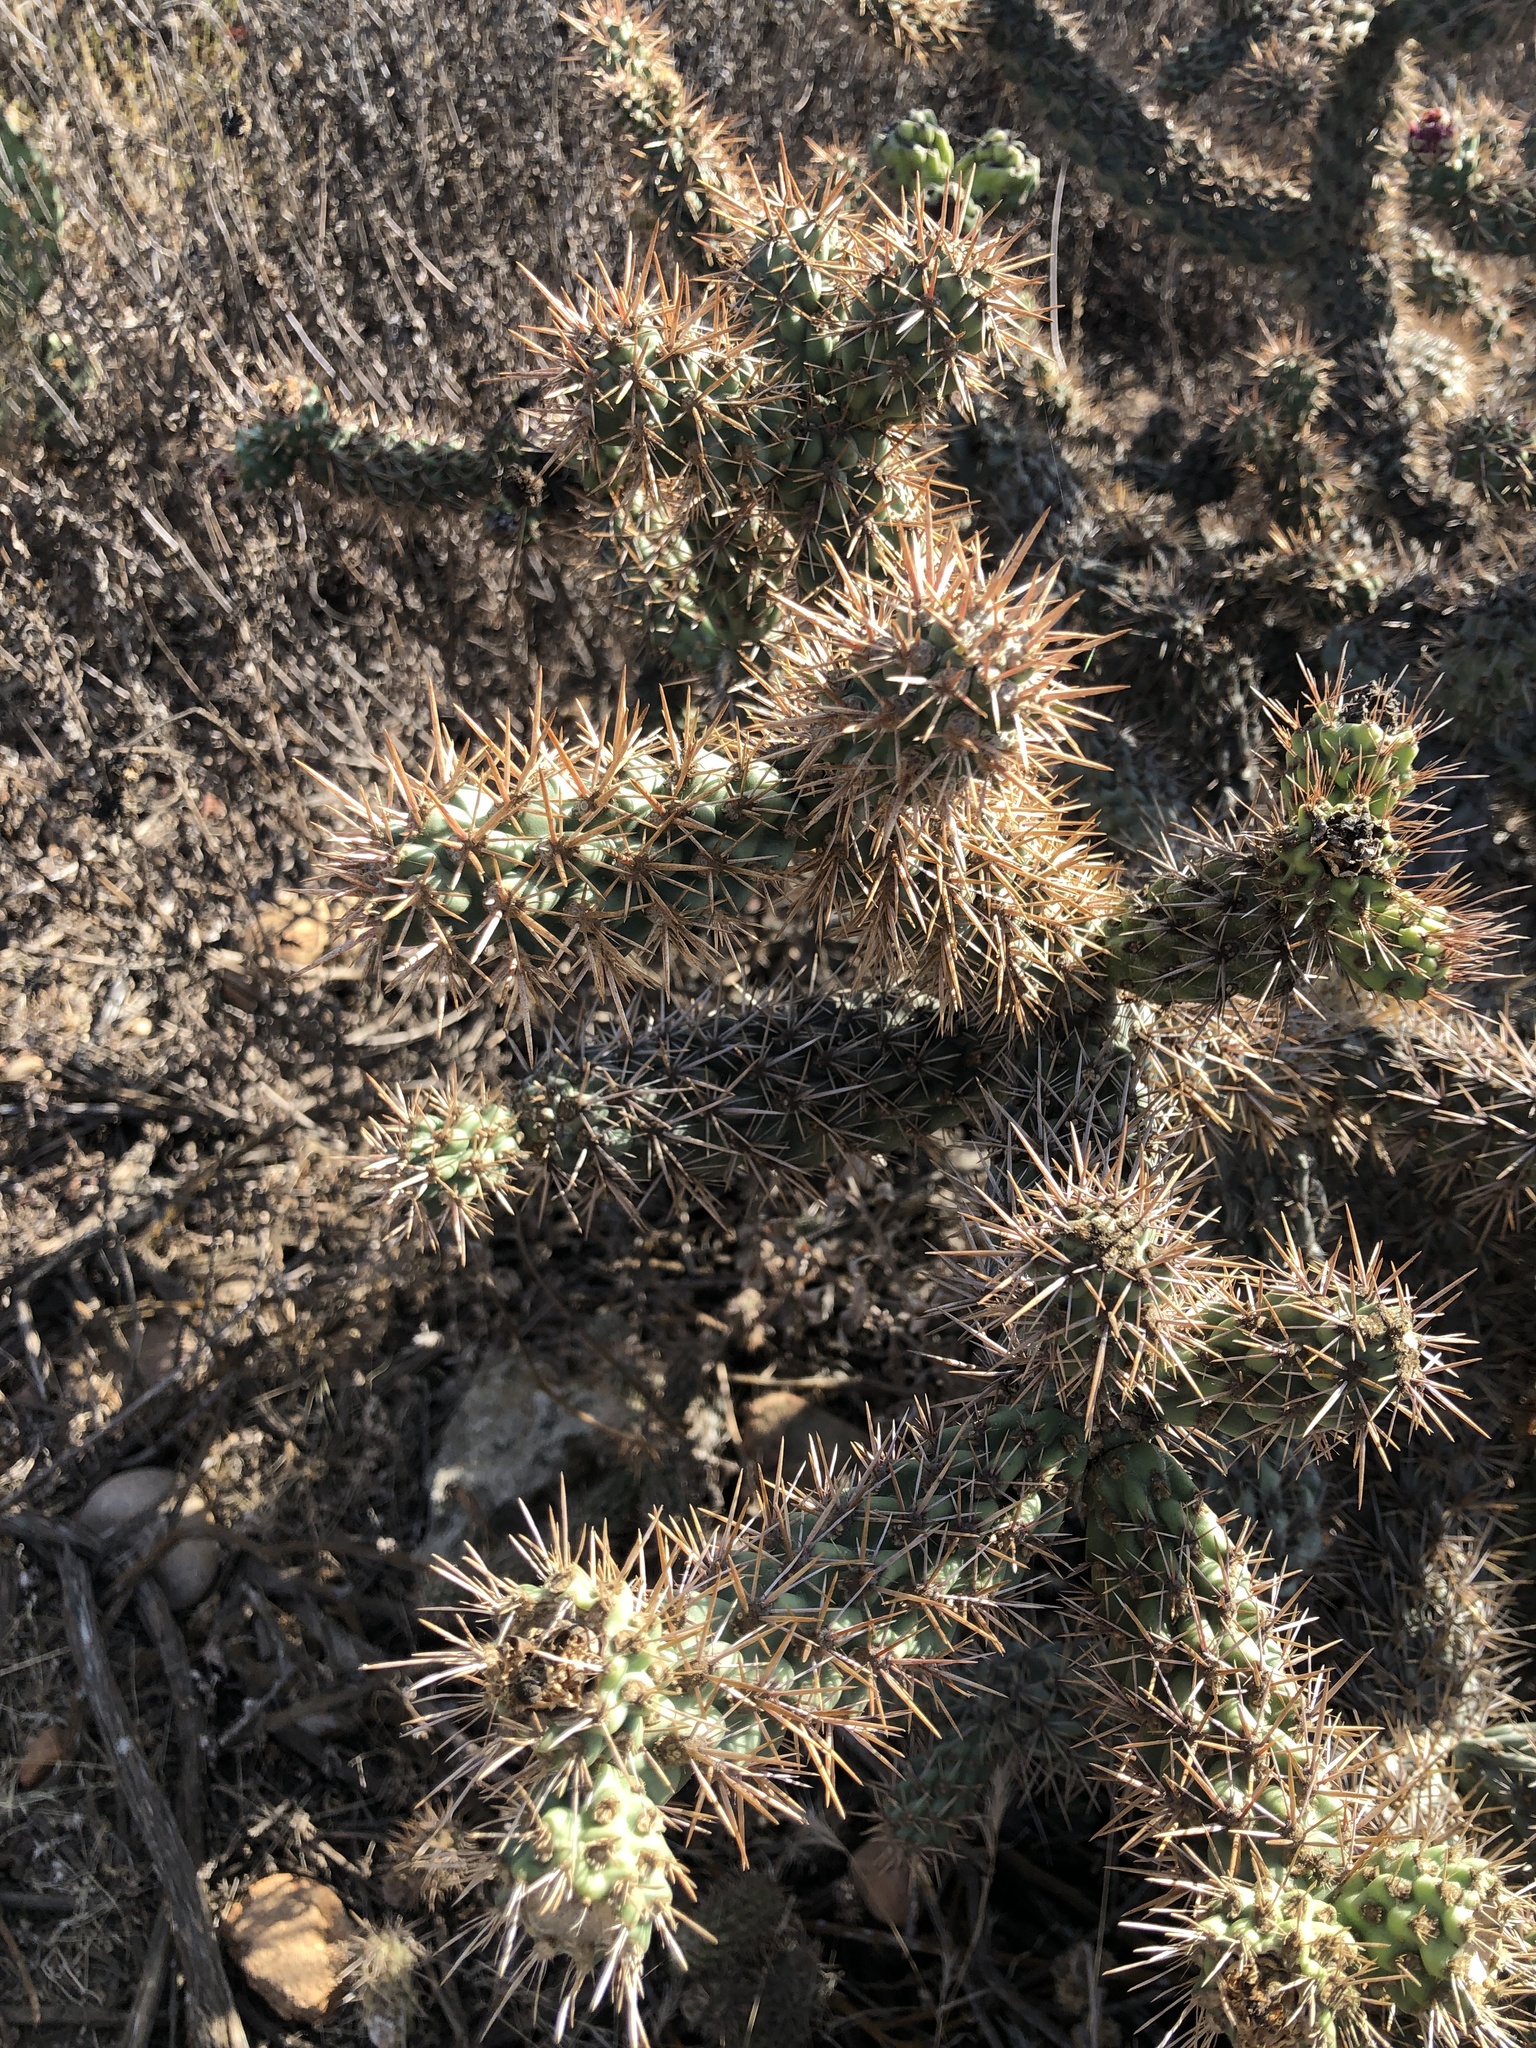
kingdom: Plantae
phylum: Tracheophyta
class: Magnoliopsida
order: Caryophyllales
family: Cactaceae
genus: Cylindropuntia
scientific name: Cylindropuntia prolifera
